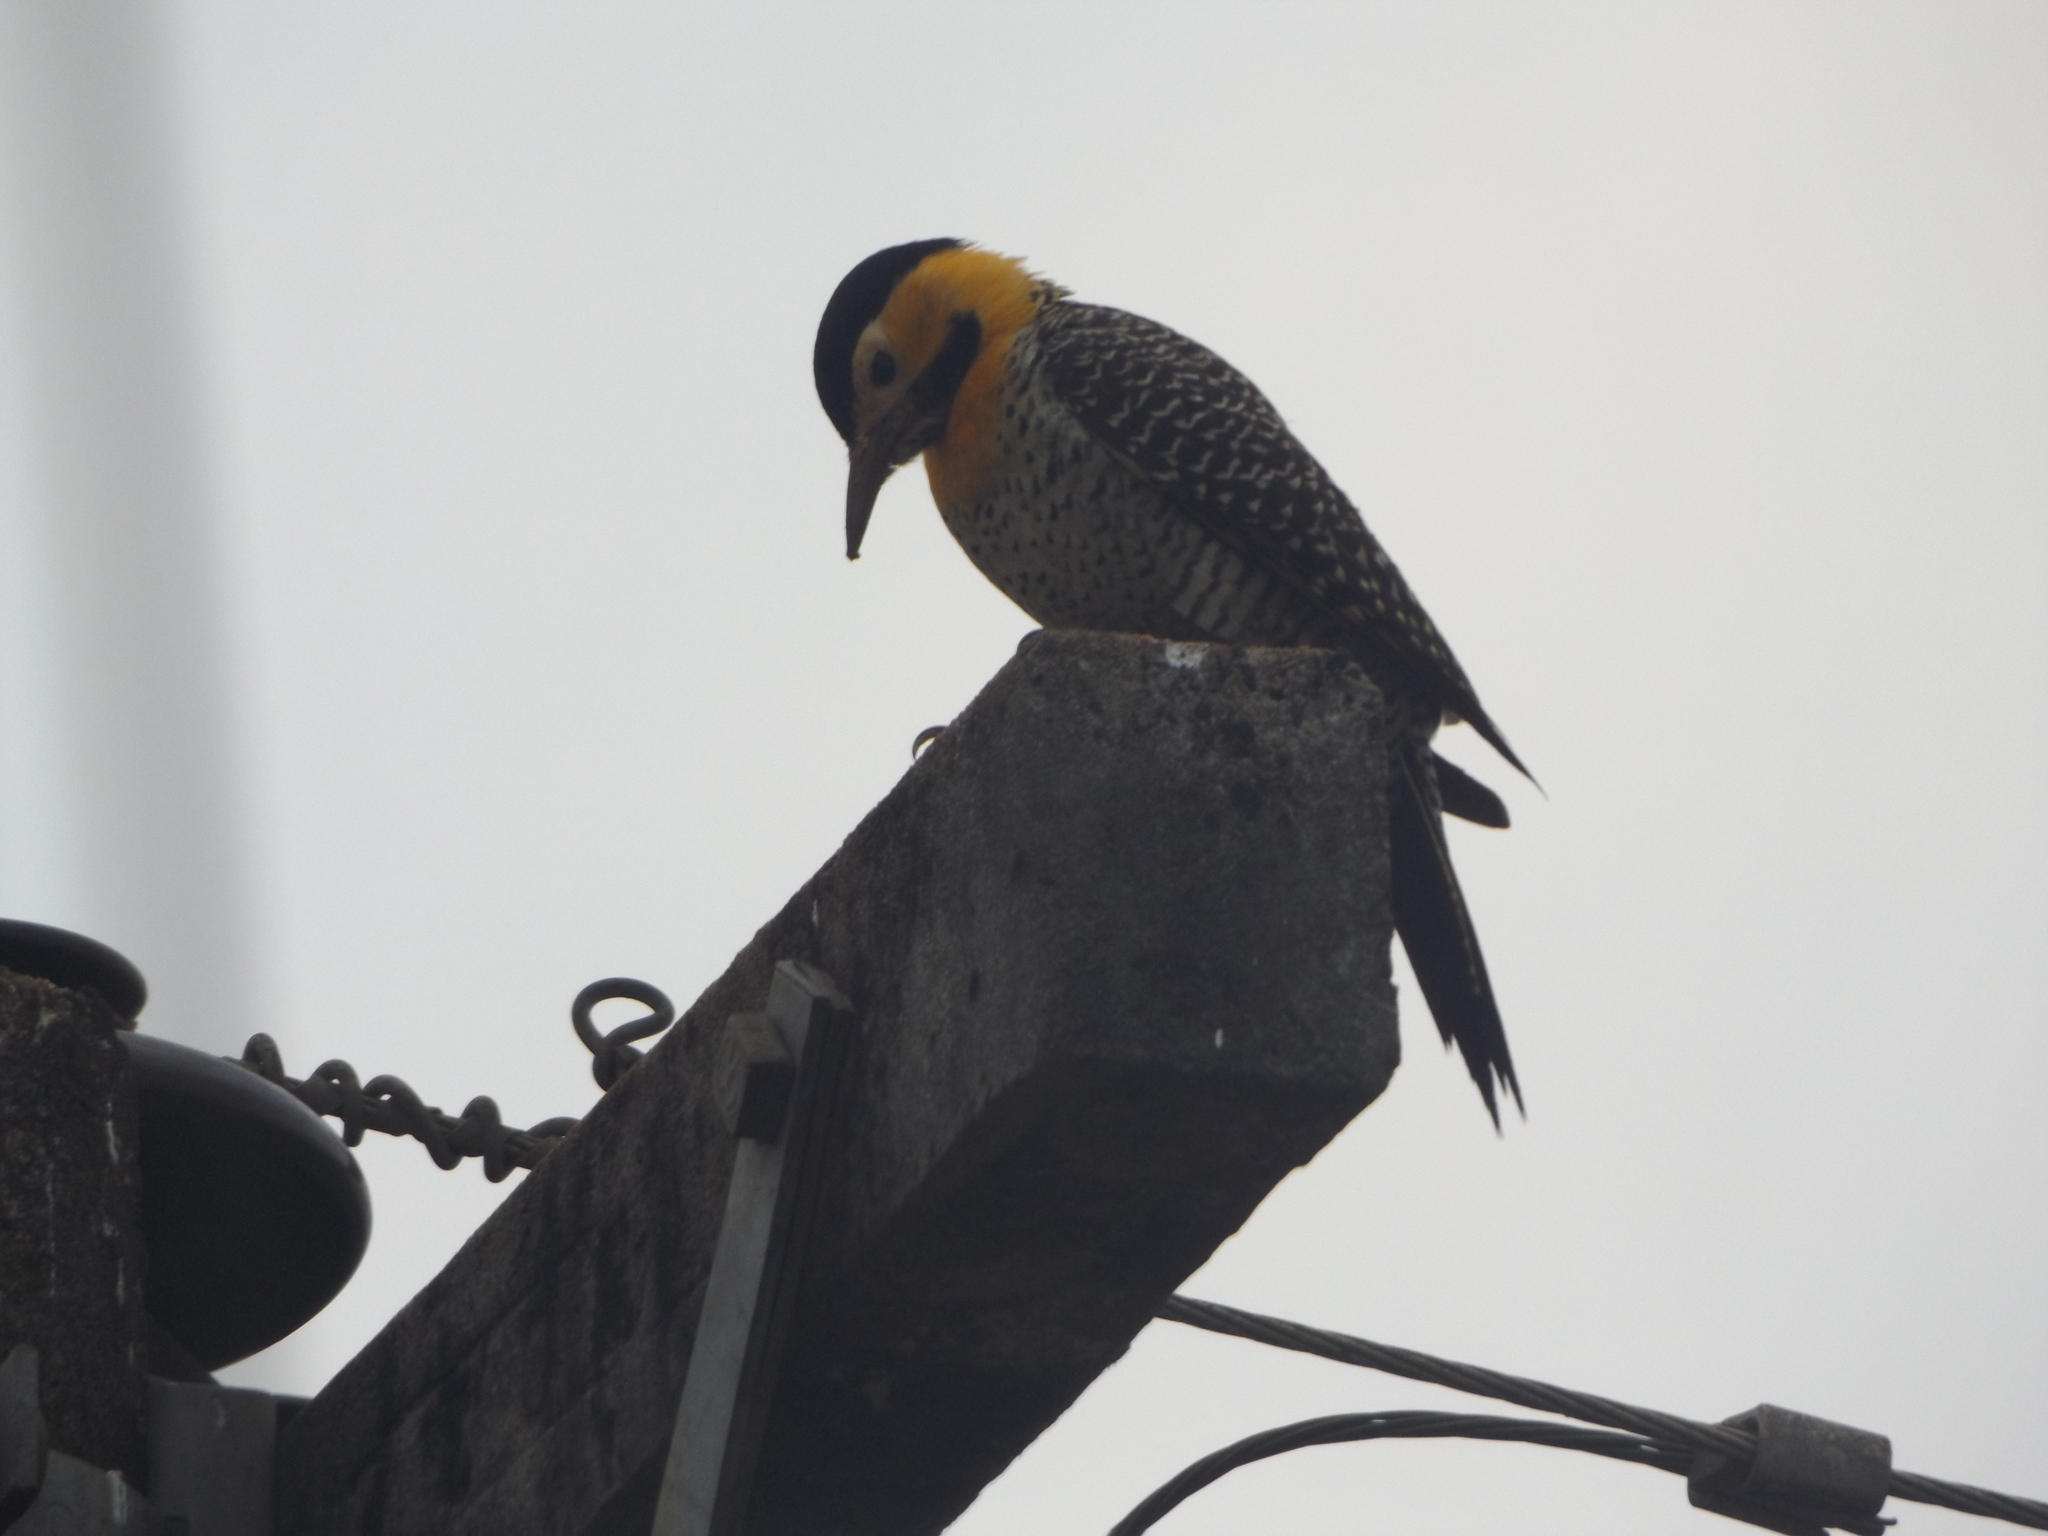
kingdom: Animalia
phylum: Chordata
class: Aves
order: Piciformes
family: Picidae
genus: Colaptes
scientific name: Colaptes campestris
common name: Campo flicker
